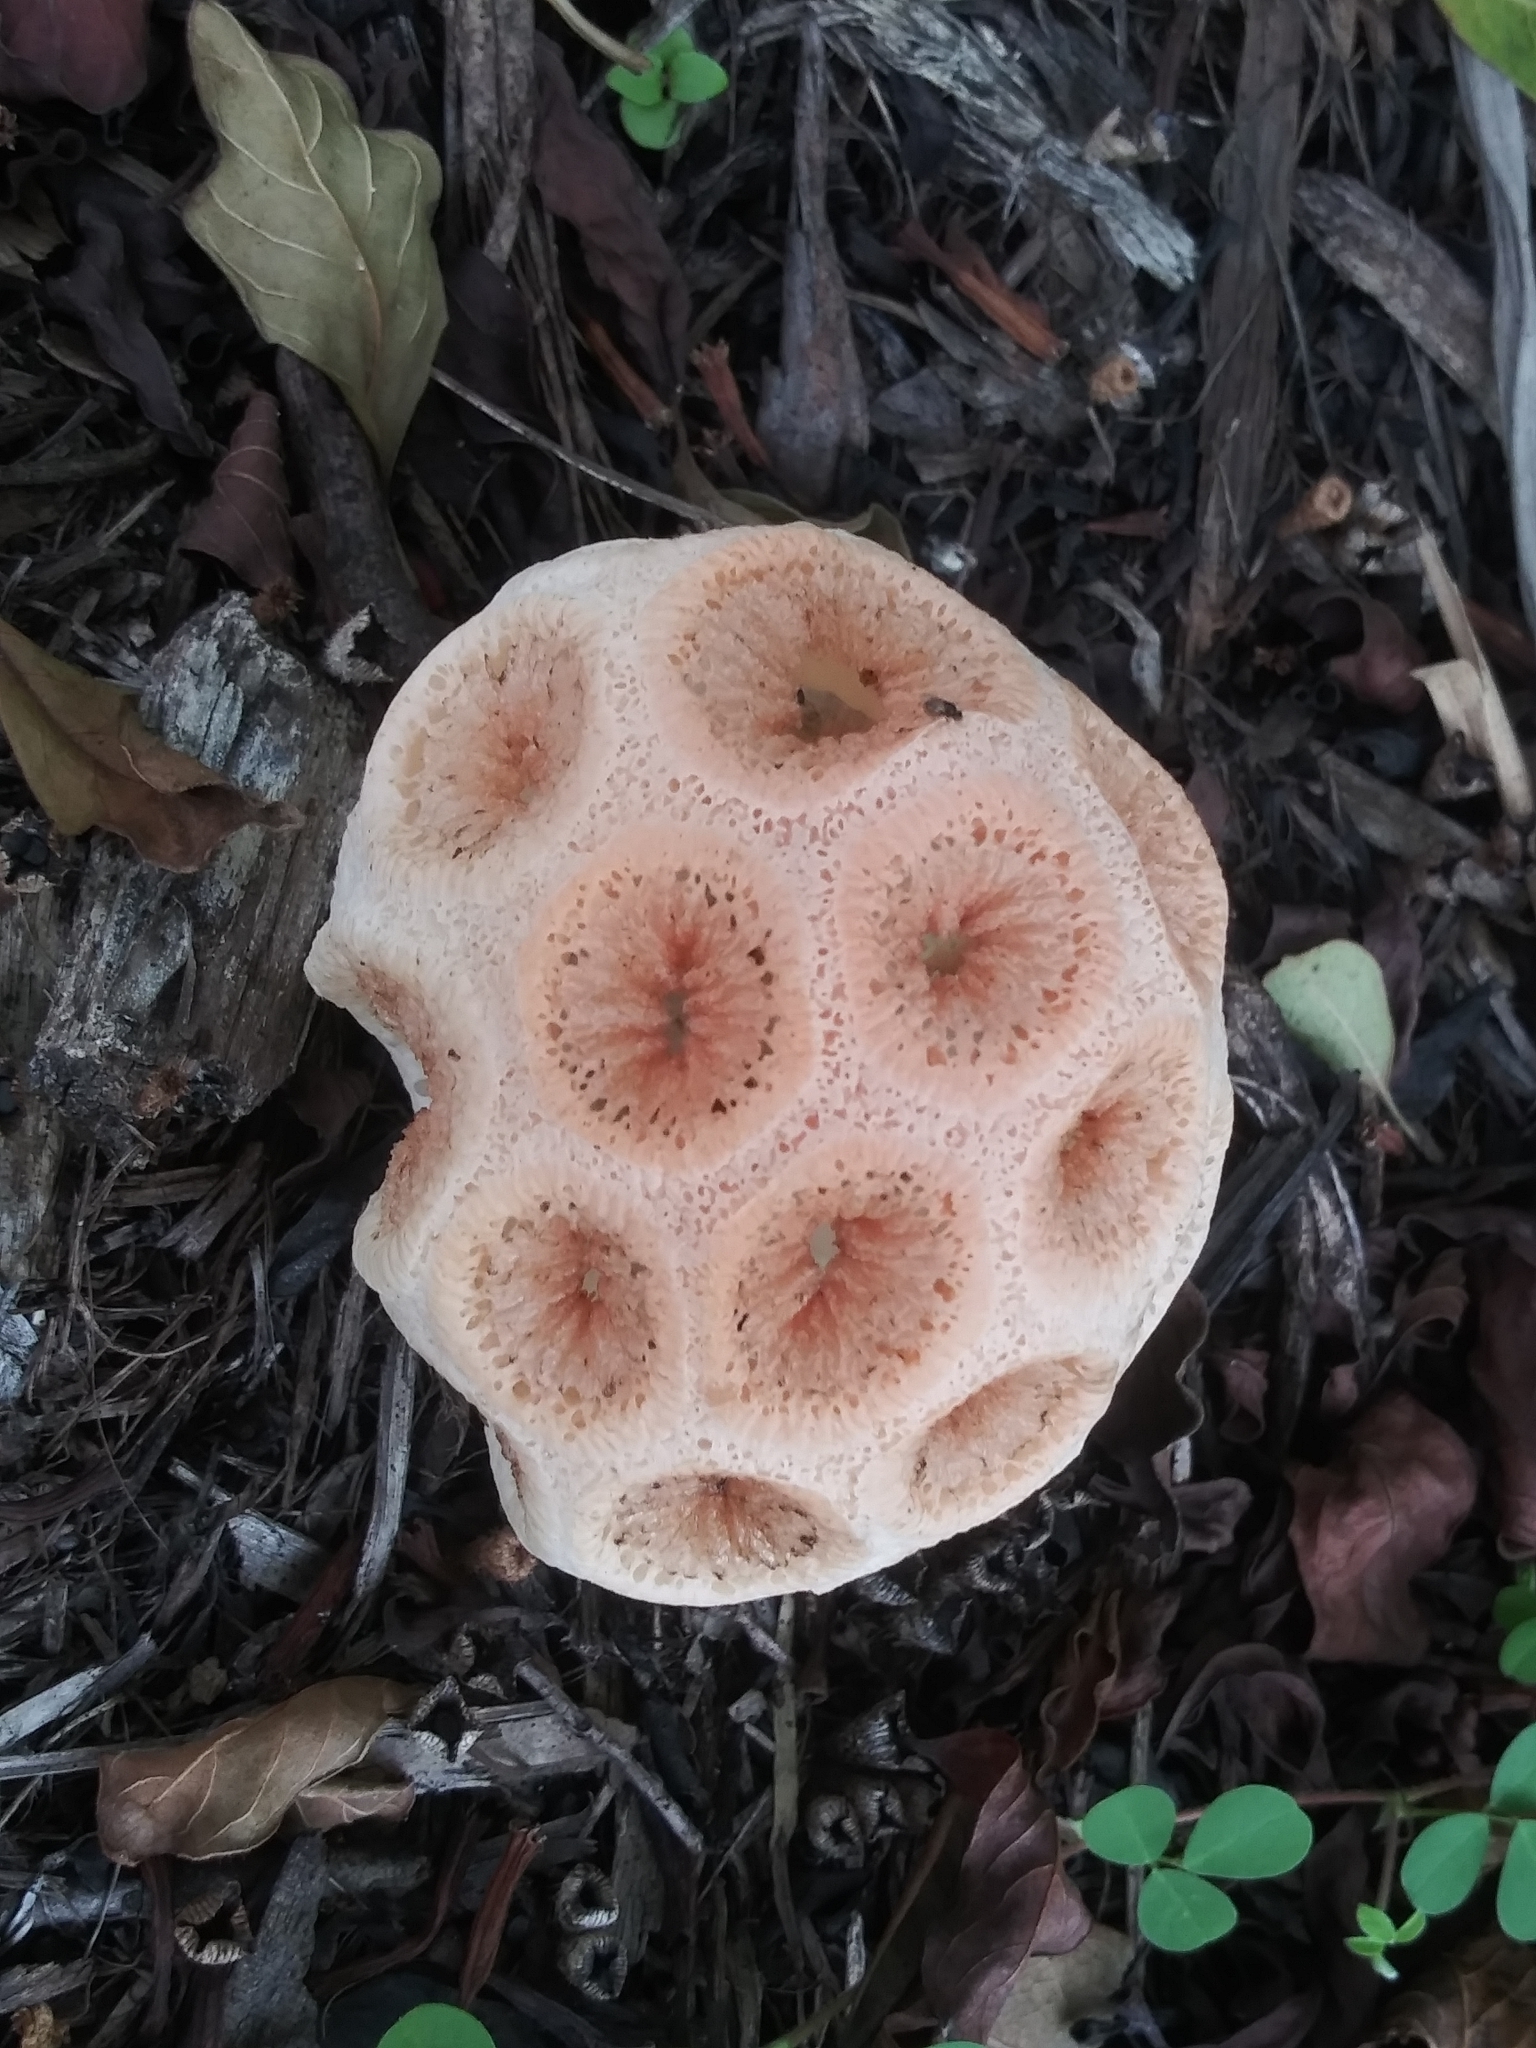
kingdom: Fungi
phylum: Basidiomycota
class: Agaricomycetes
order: Phallales
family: Phallaceae
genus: Clathrus
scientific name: Clathrus crispatus
